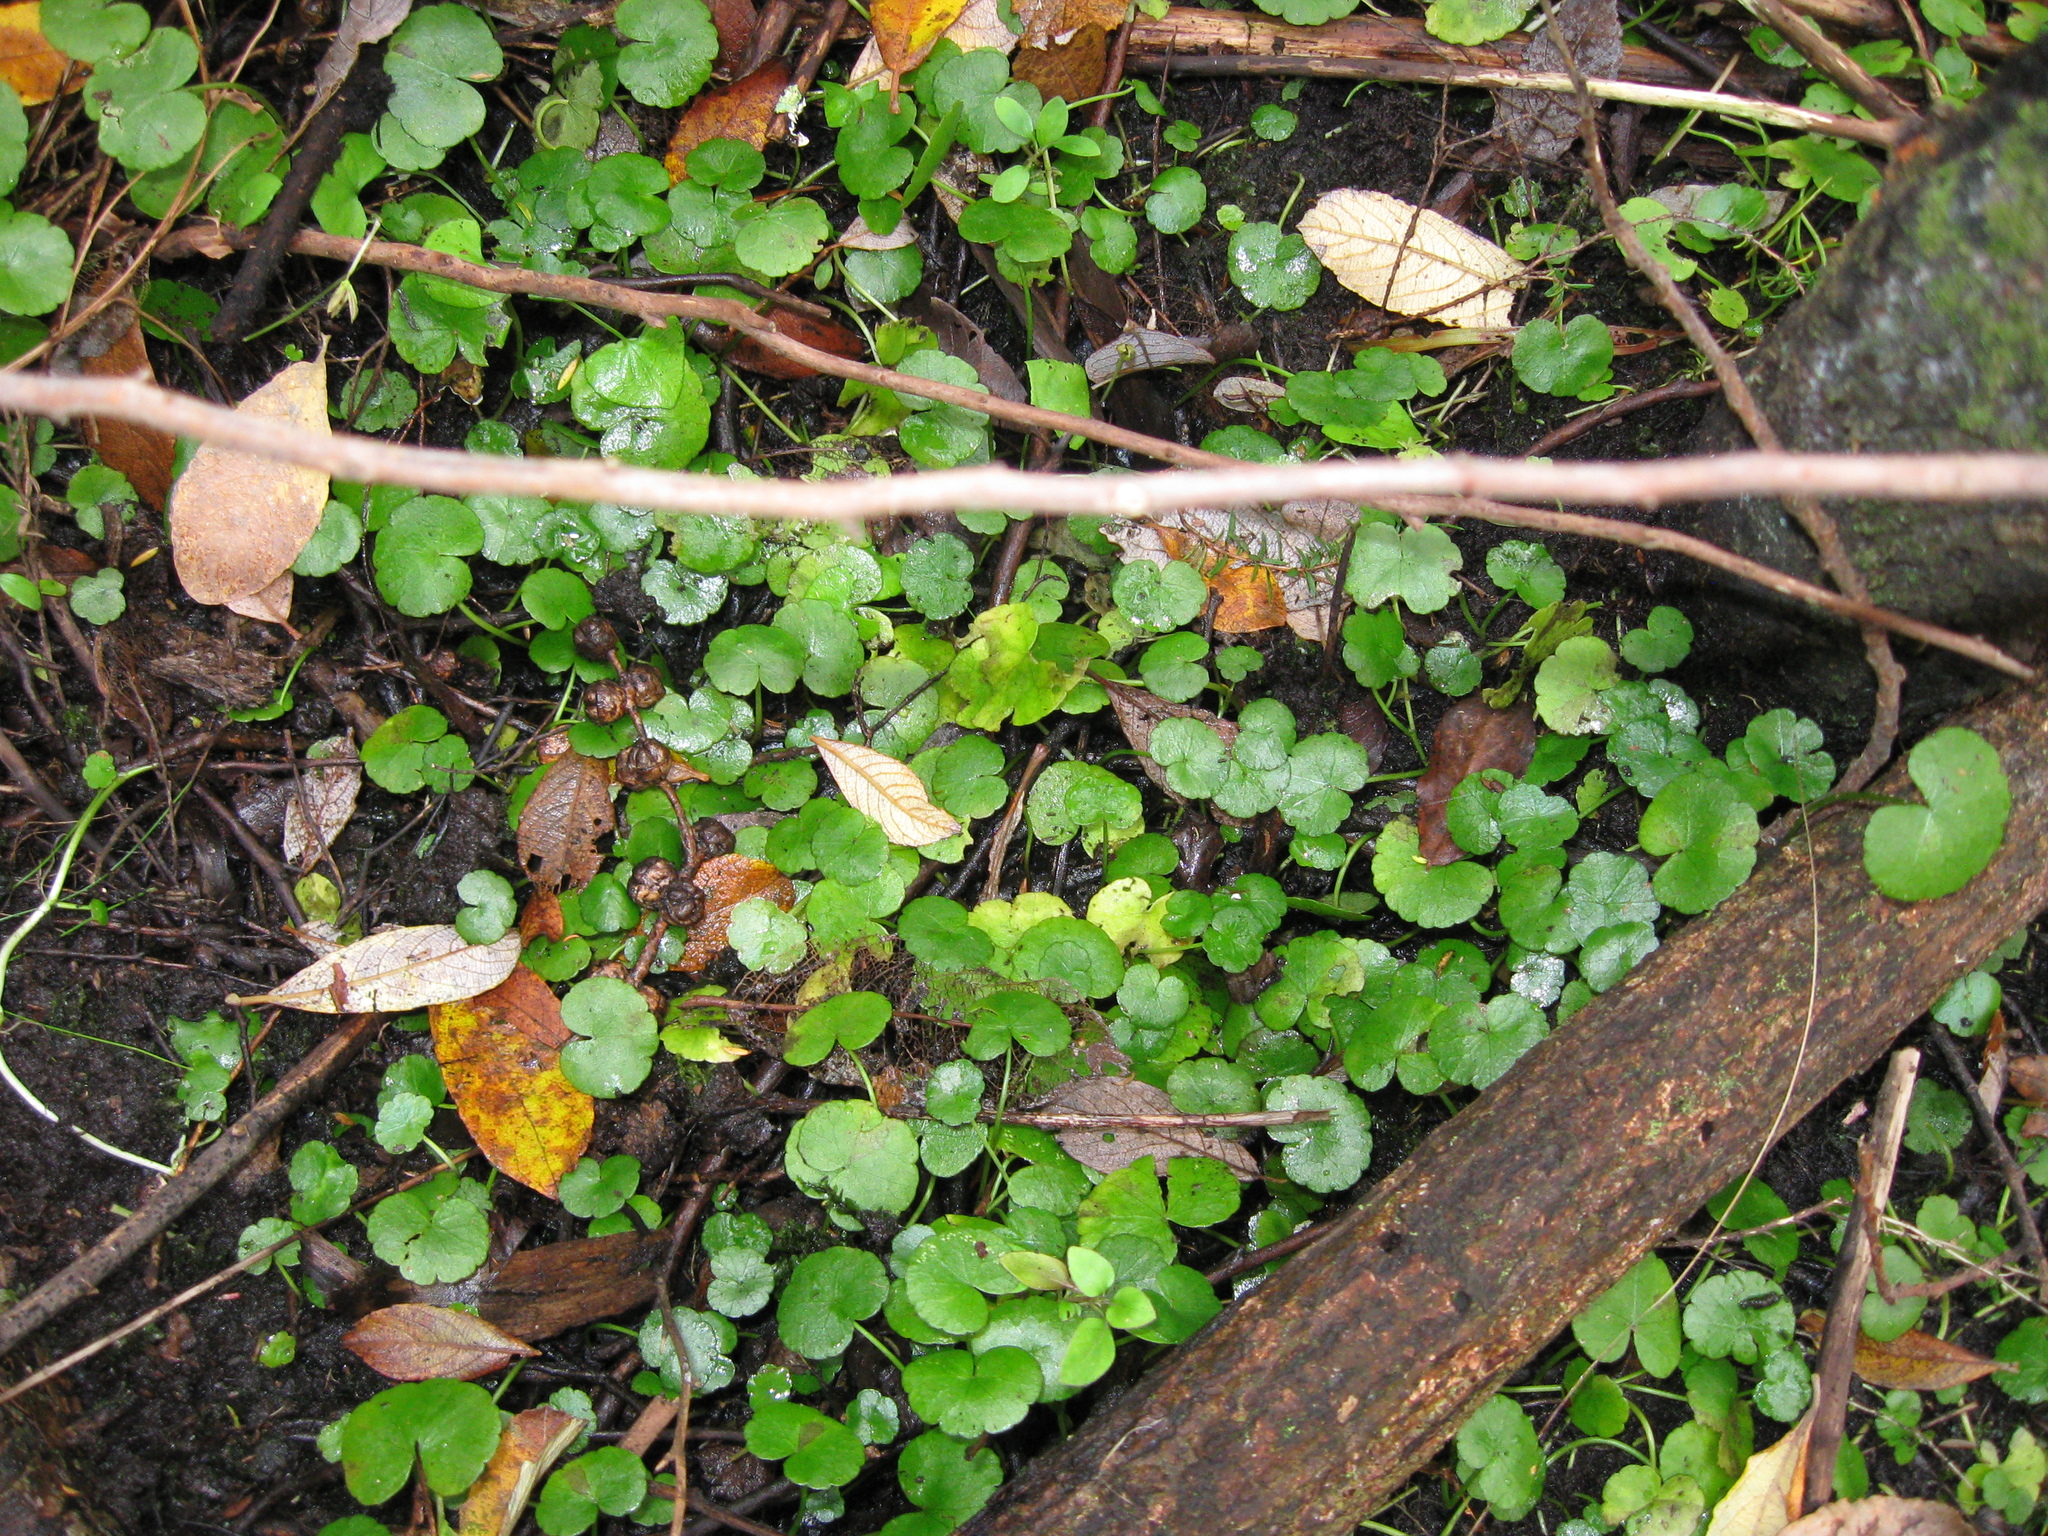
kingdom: Plantae
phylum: Tracheophyta
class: Magnoliopsida
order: Apiales
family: Araliaceae
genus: Hydrocotyle
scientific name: Hydrocotyle pterocarpa
